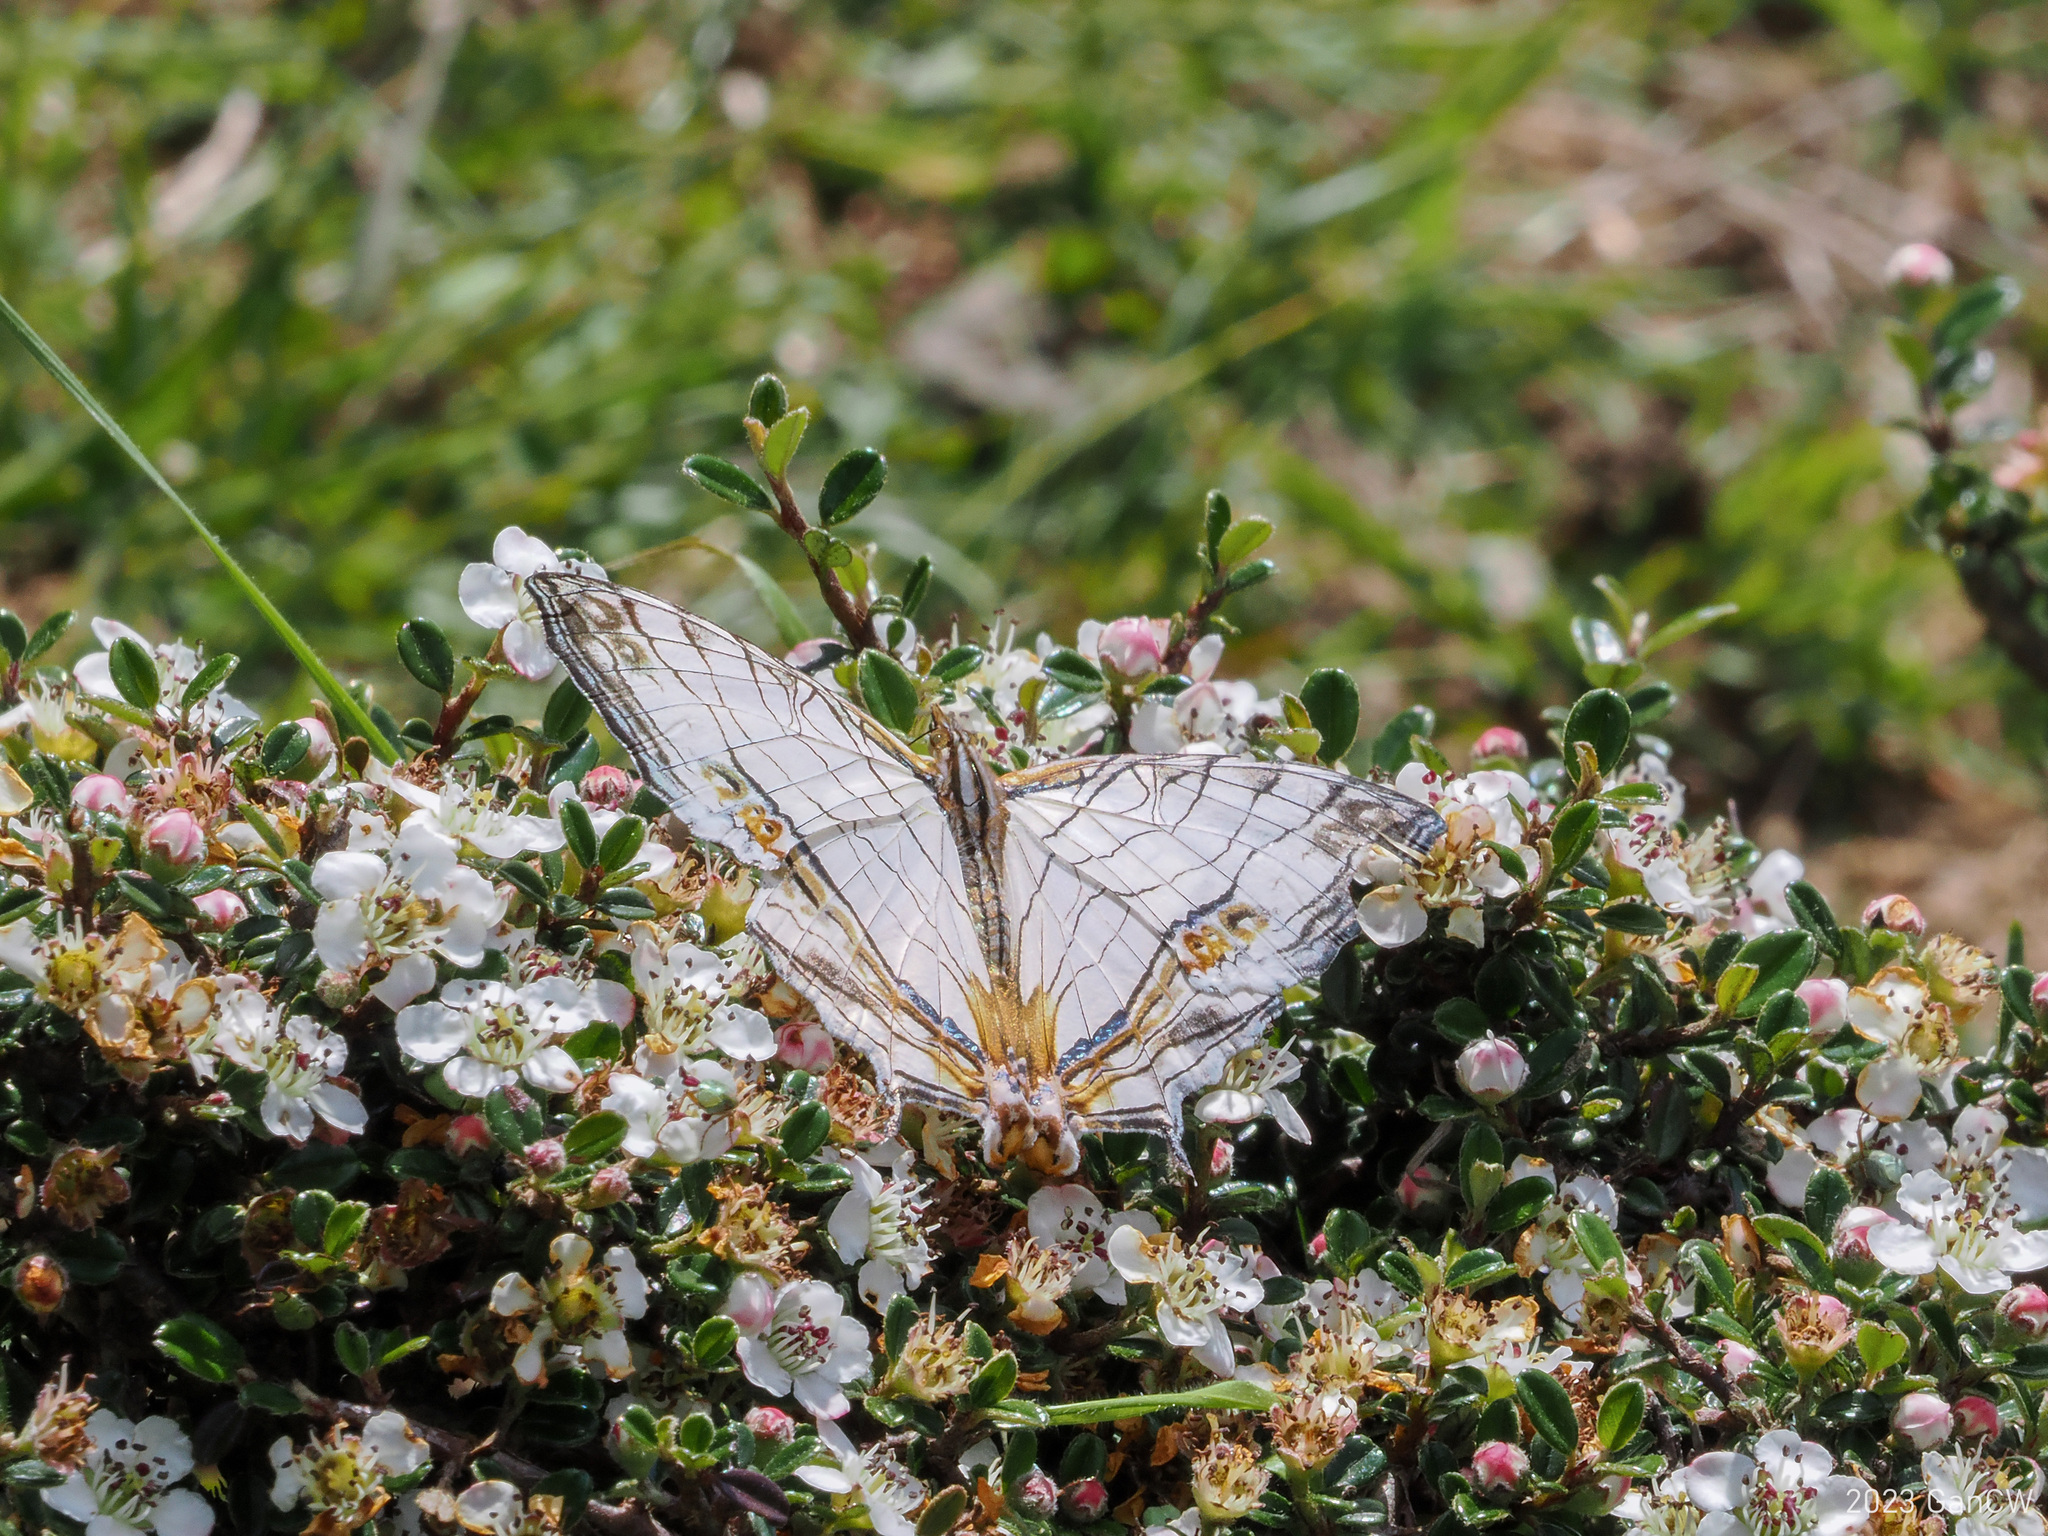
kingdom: Animalia
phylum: Arthropoda
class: Insecta
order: Lepidoptera
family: Nymphalidae
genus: Cyrestis
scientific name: Cyrestis thyodamas
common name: Common mapwing
